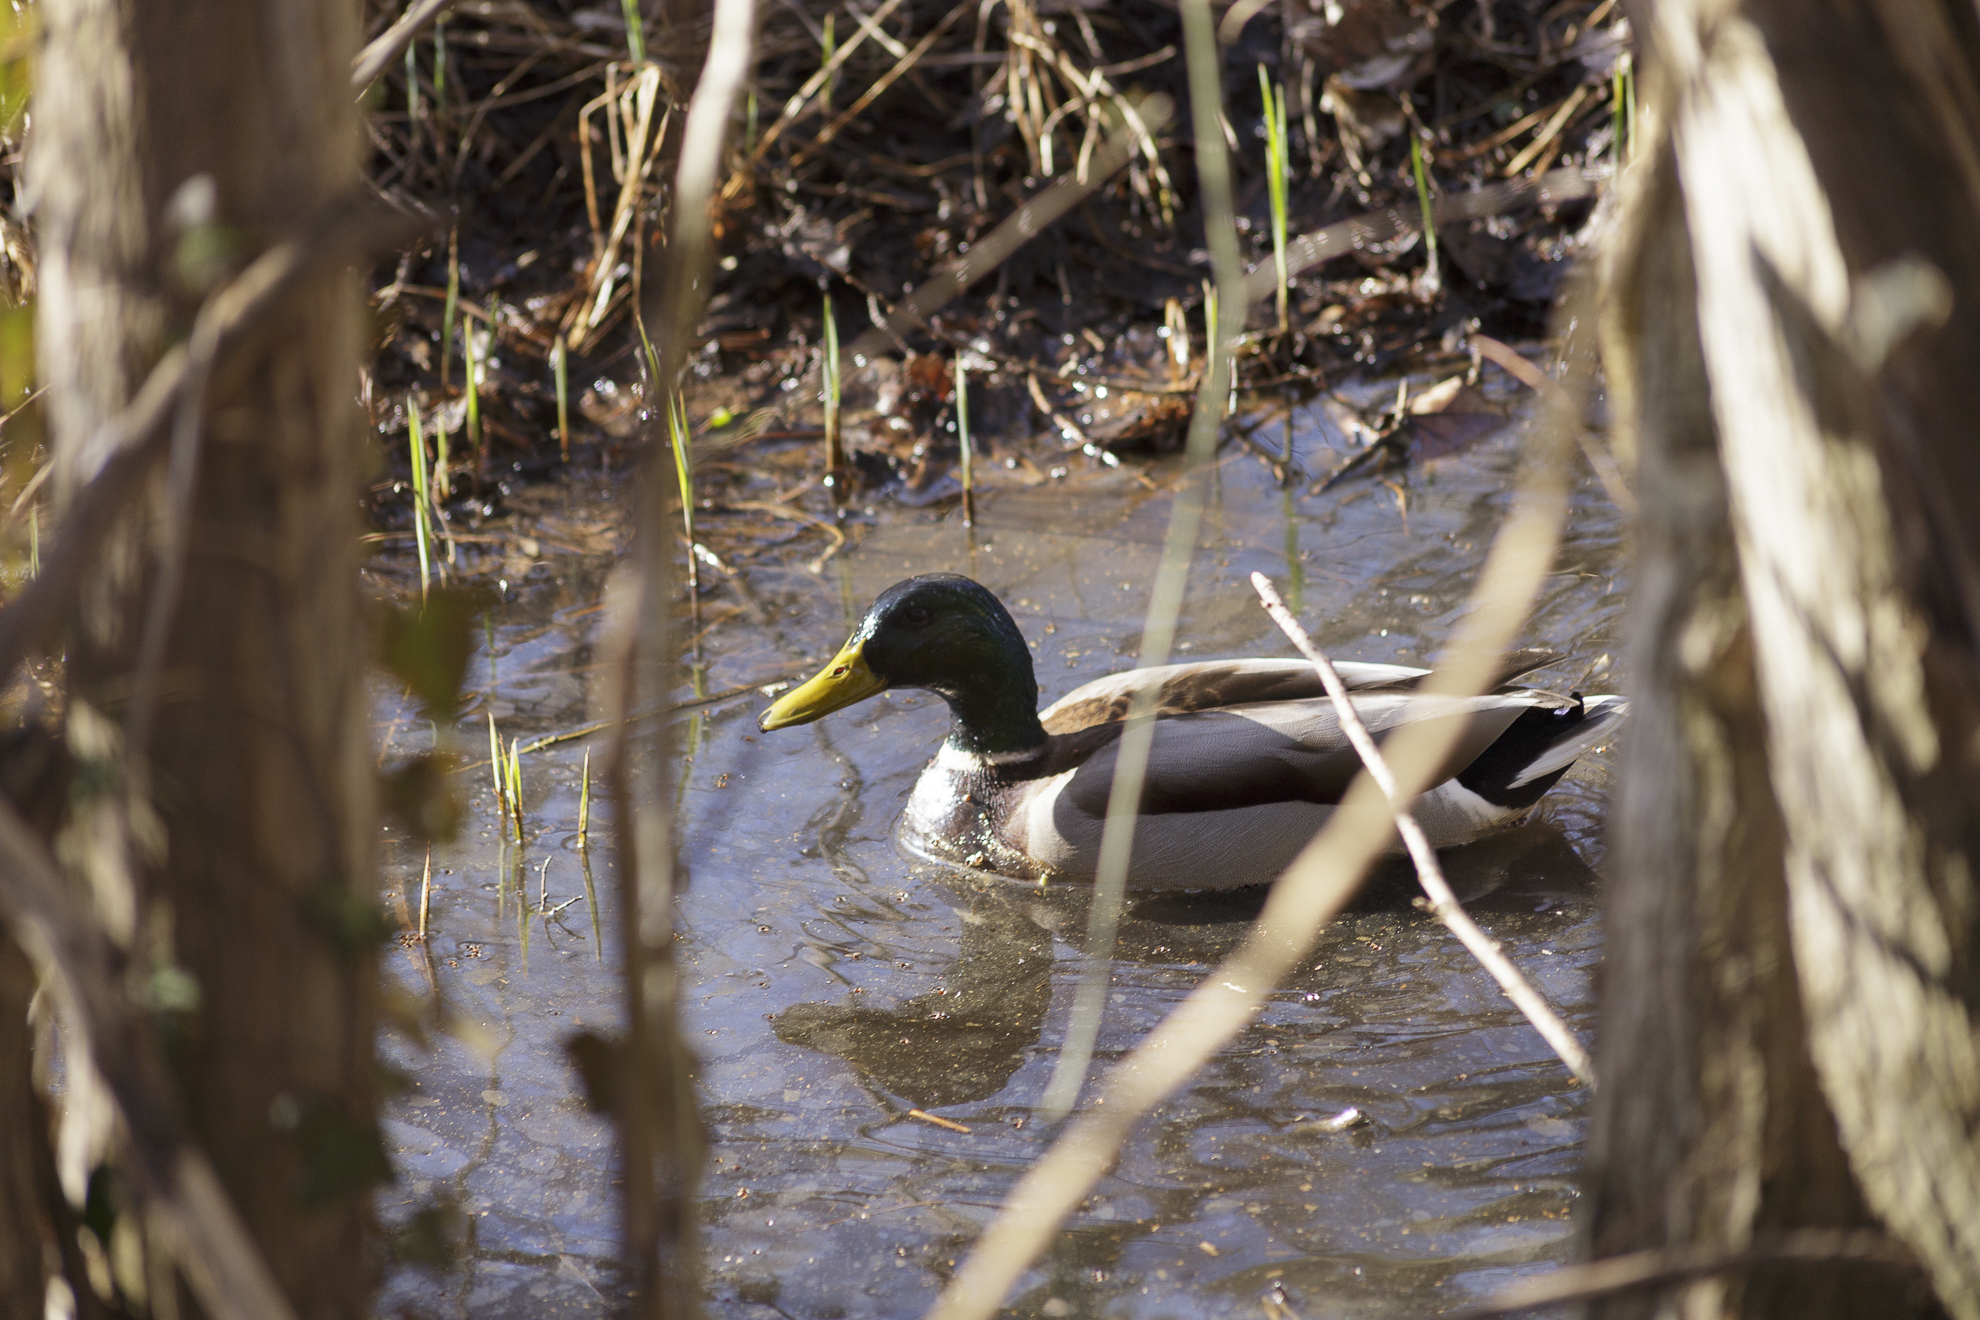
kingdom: Animalia
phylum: Chordata
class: Aves
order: Anseriformes
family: Anatidae
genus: Anas
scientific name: Anas platyrhynchos
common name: Mallard
